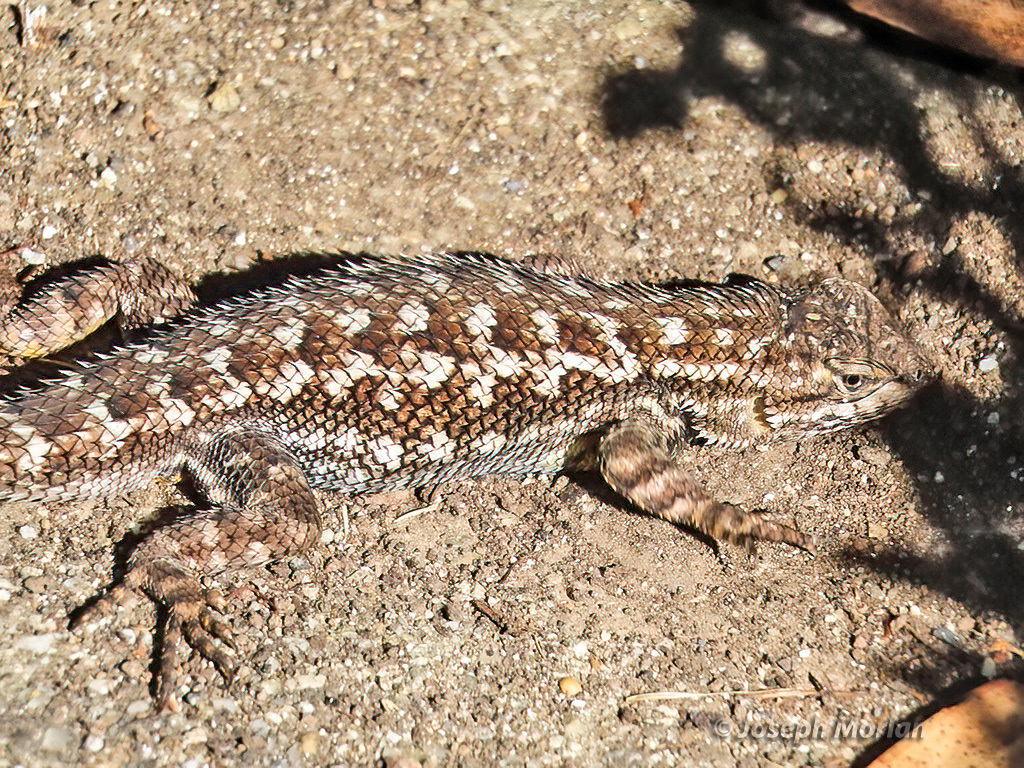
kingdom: Animalia
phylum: Chordata
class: Squamata
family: Phrynosomatidae
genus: Sceloporus
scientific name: Sceloporus occidentalis
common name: Western fence lizard
